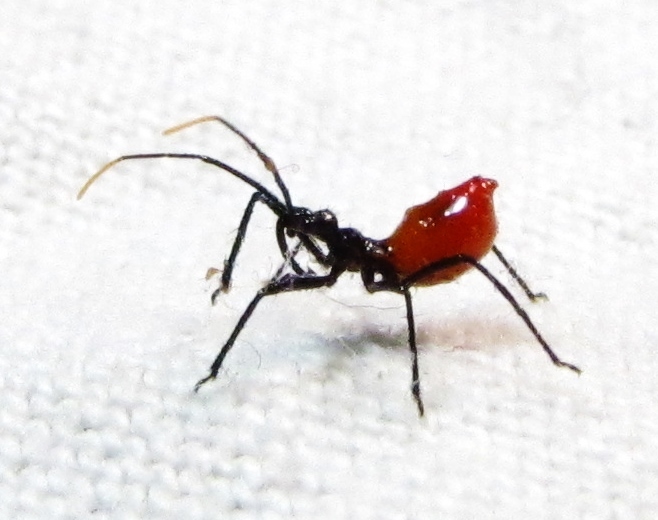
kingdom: Animalia
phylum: Arthropoda
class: Insecta
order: Hemiptera
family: Reduviidae
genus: Arilus
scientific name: Arilus cristatus
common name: North american wheel bug
